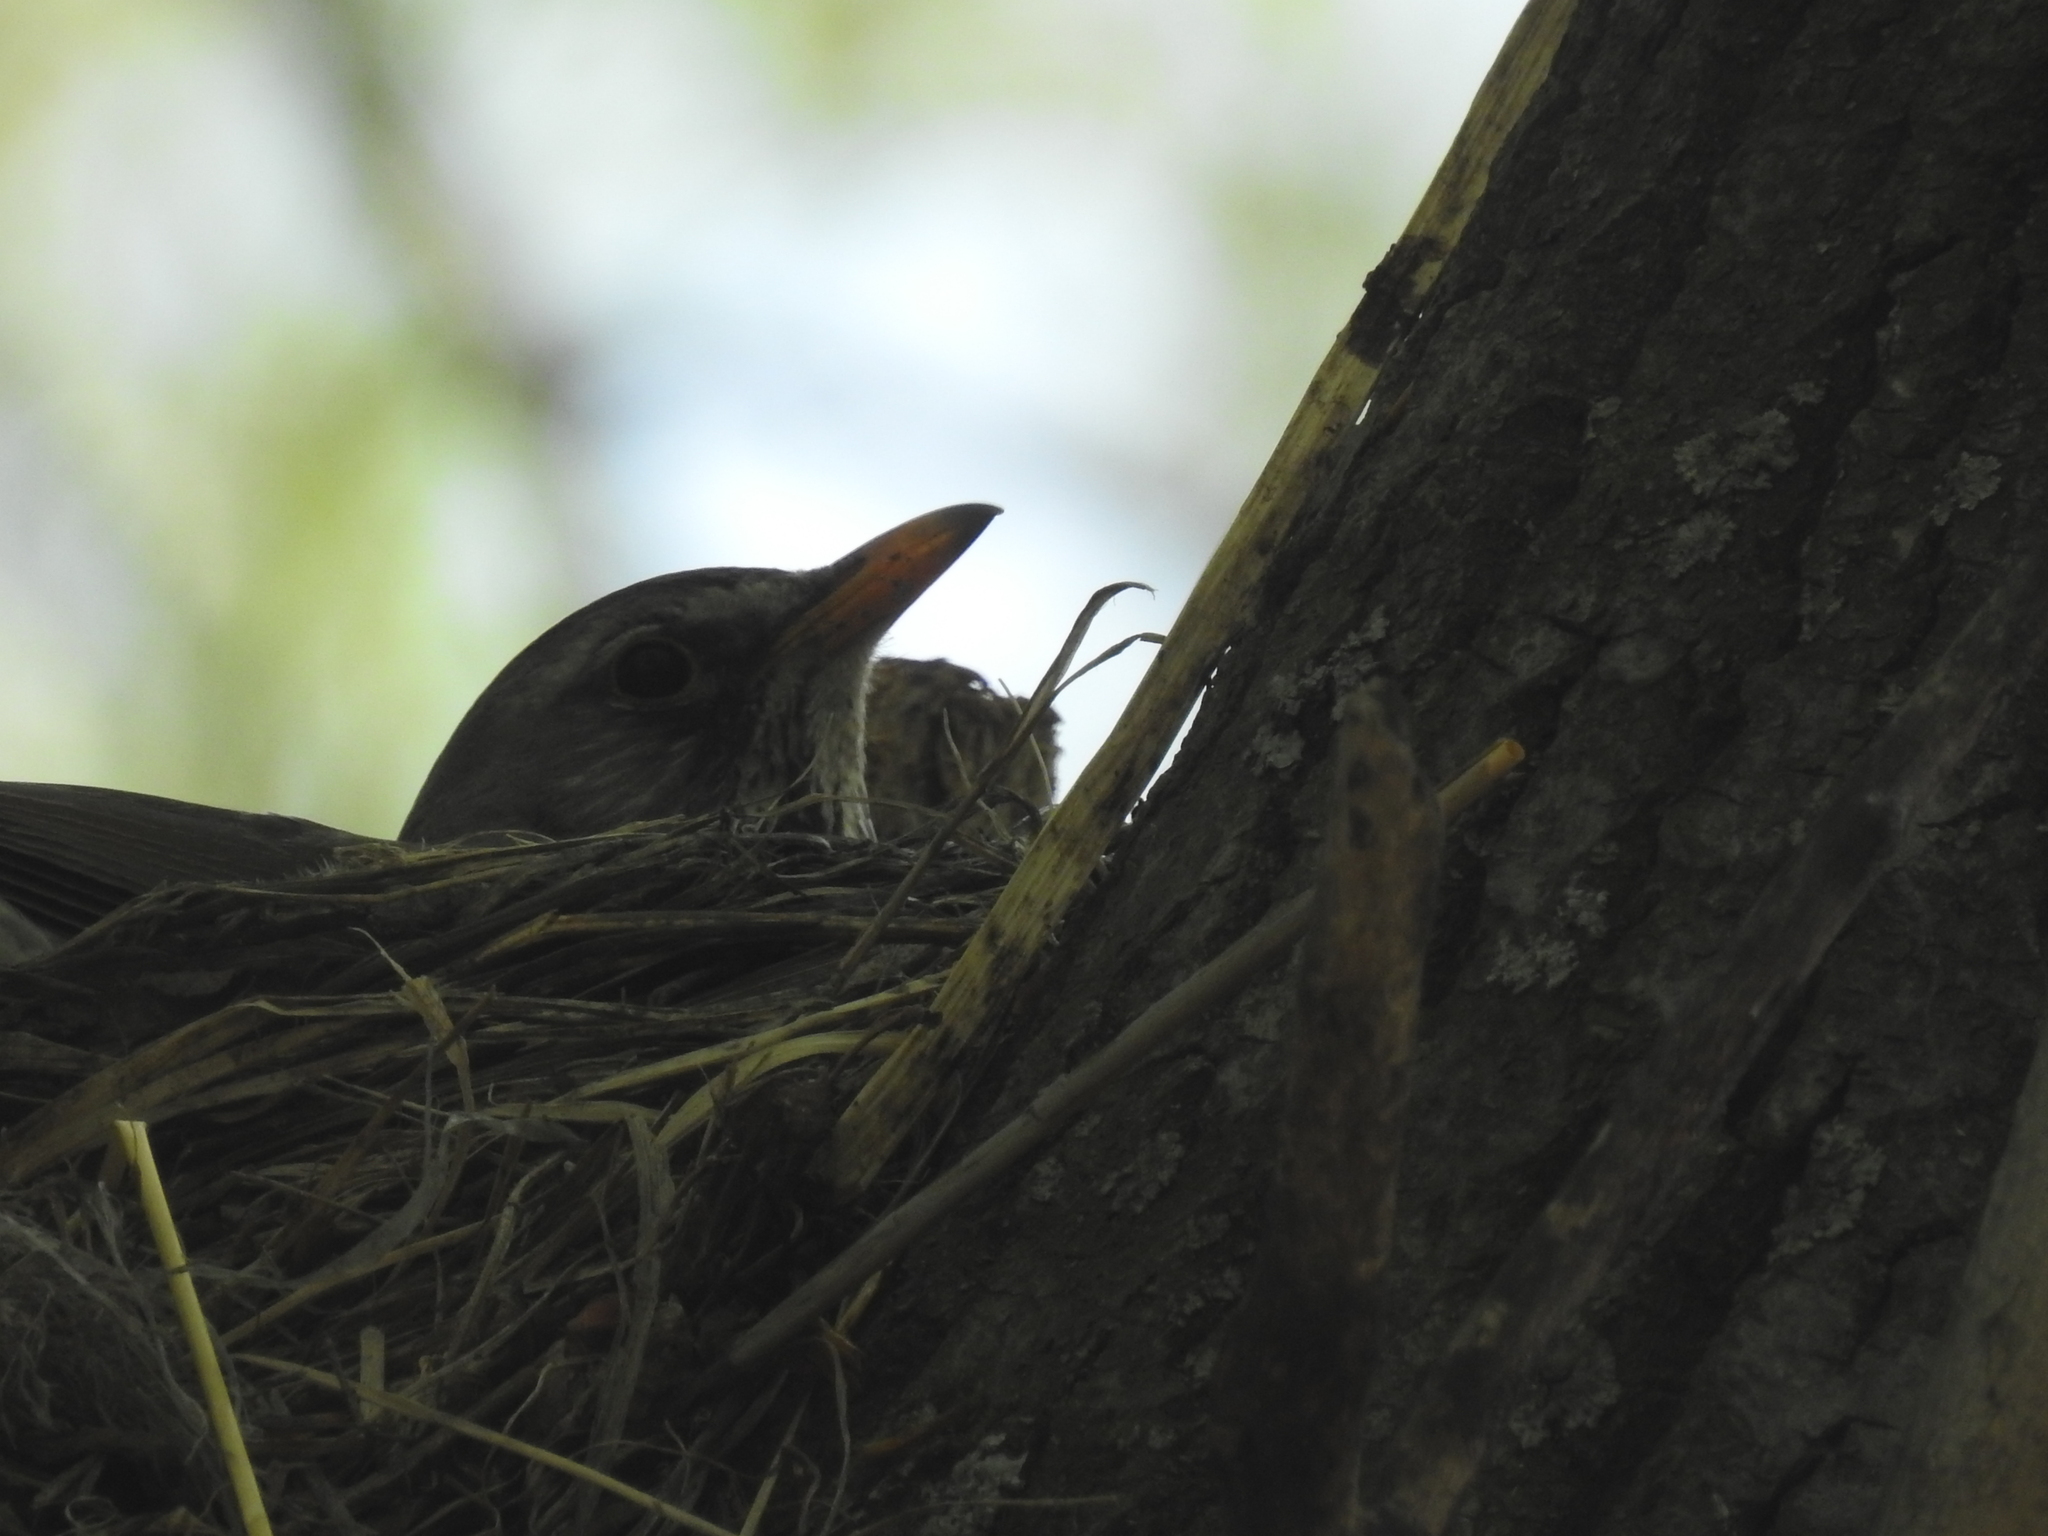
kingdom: Animalia
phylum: Chordata
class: Aves
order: Passeriformes
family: Turdidae
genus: Turdus
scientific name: Turdus pilaris
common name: Fieldfare
